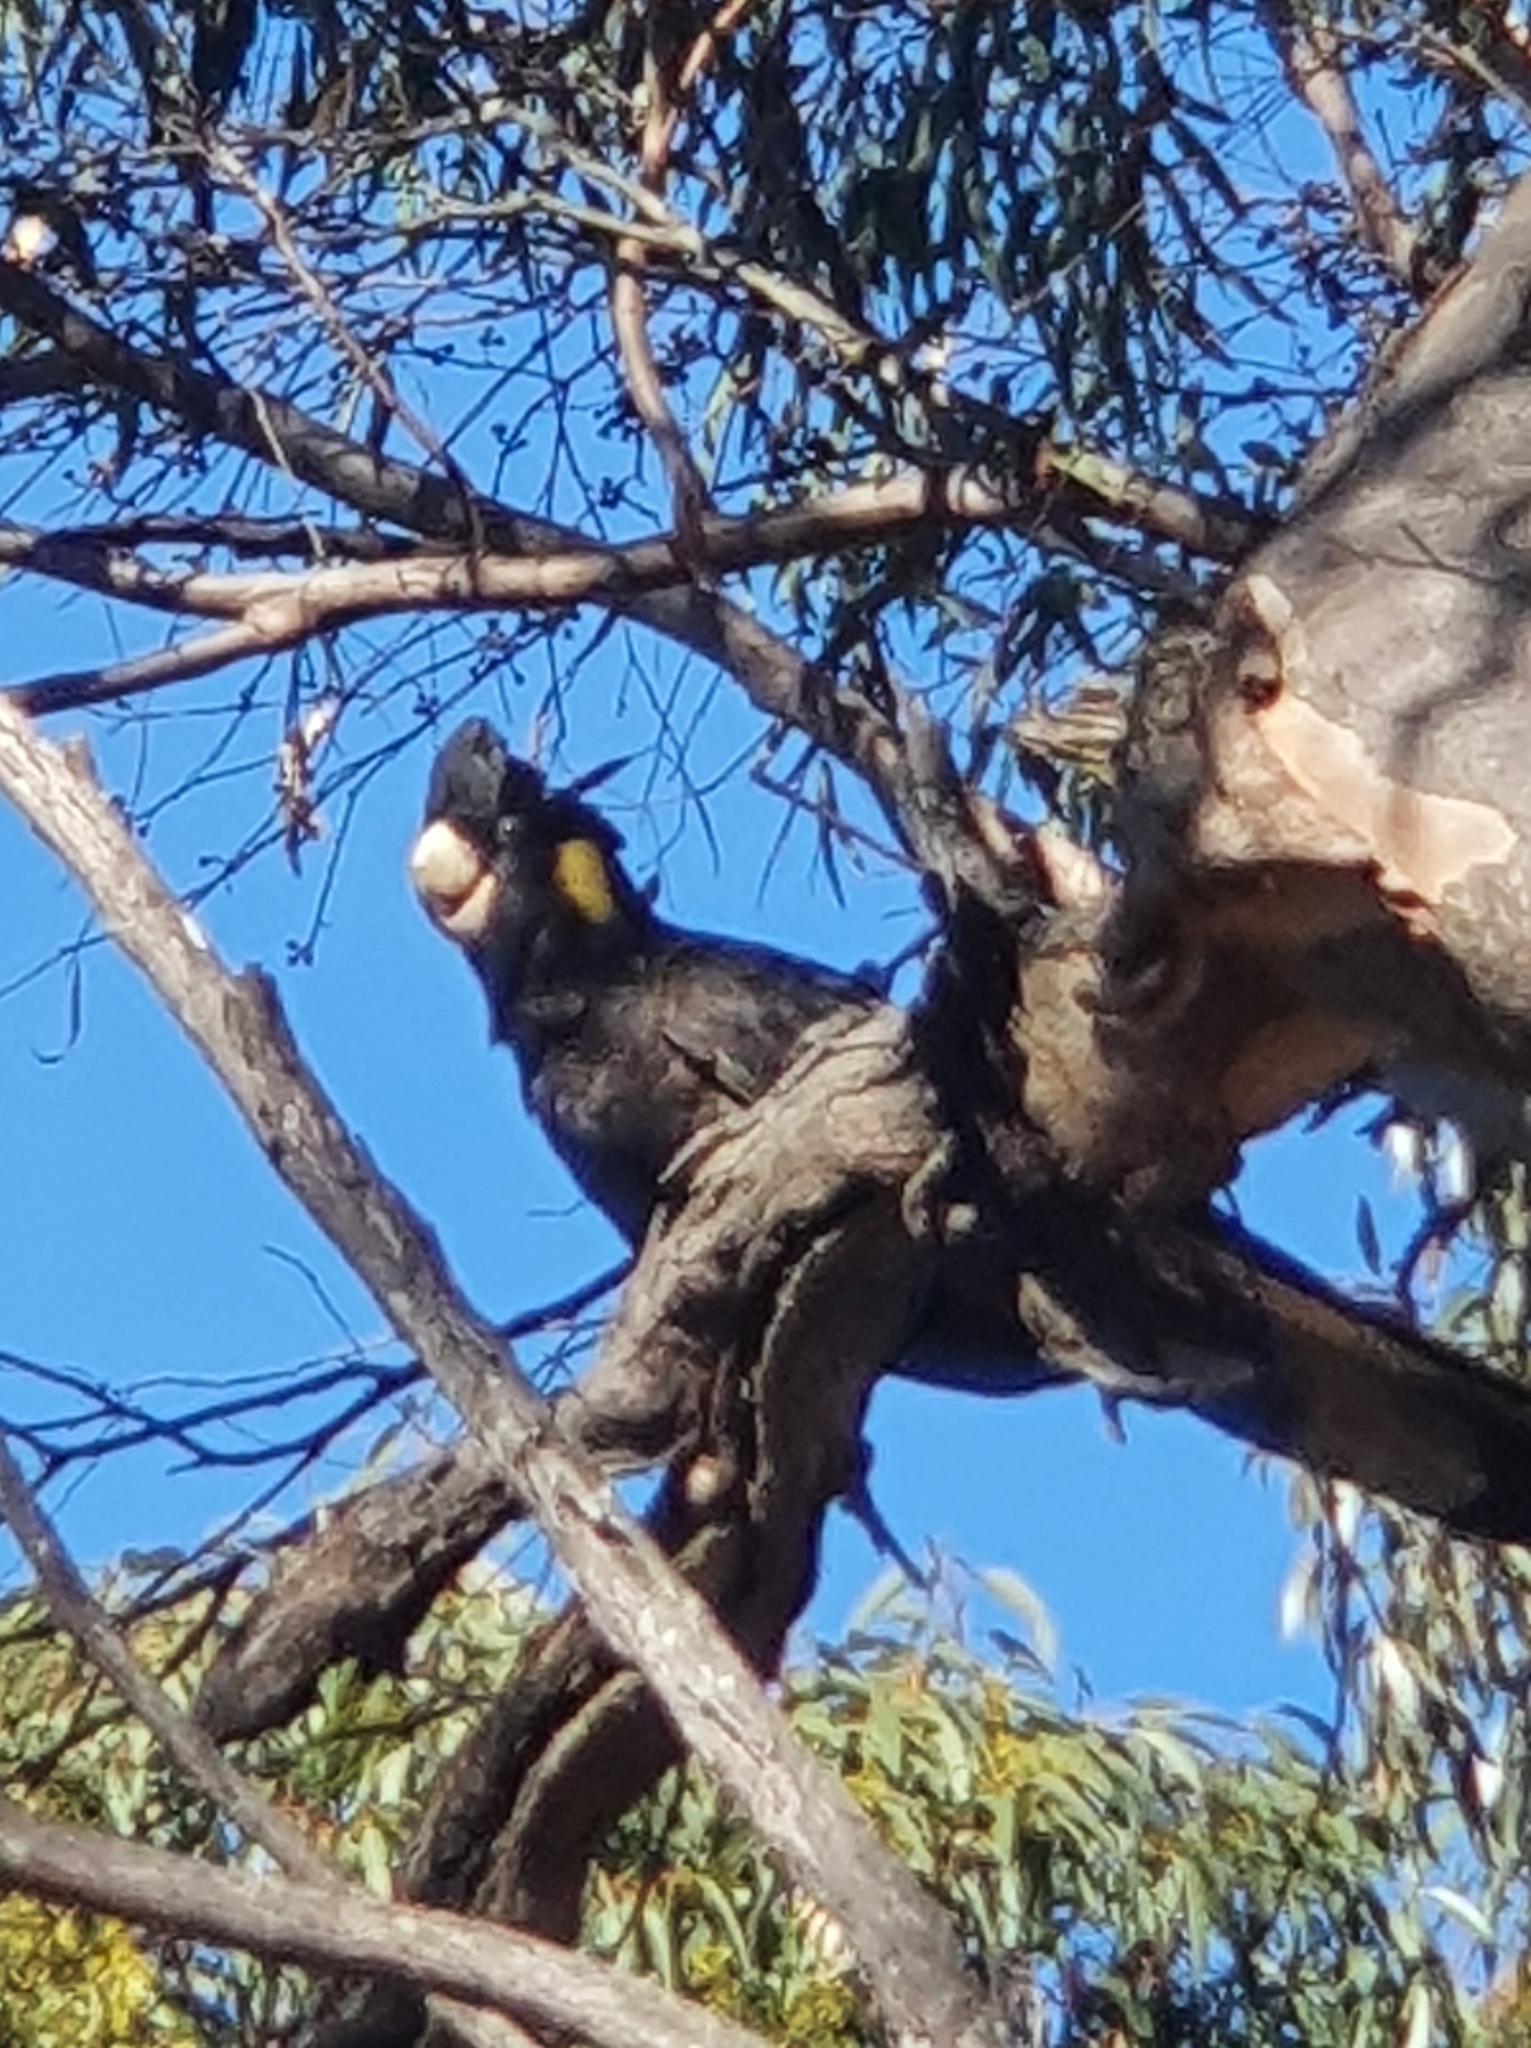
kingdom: Animalia
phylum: Chordata
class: Aves
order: Psittaciformes
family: Cacatuidae
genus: Zanda
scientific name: Zanda funerea
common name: Yellow-tailed black-cockatoo
